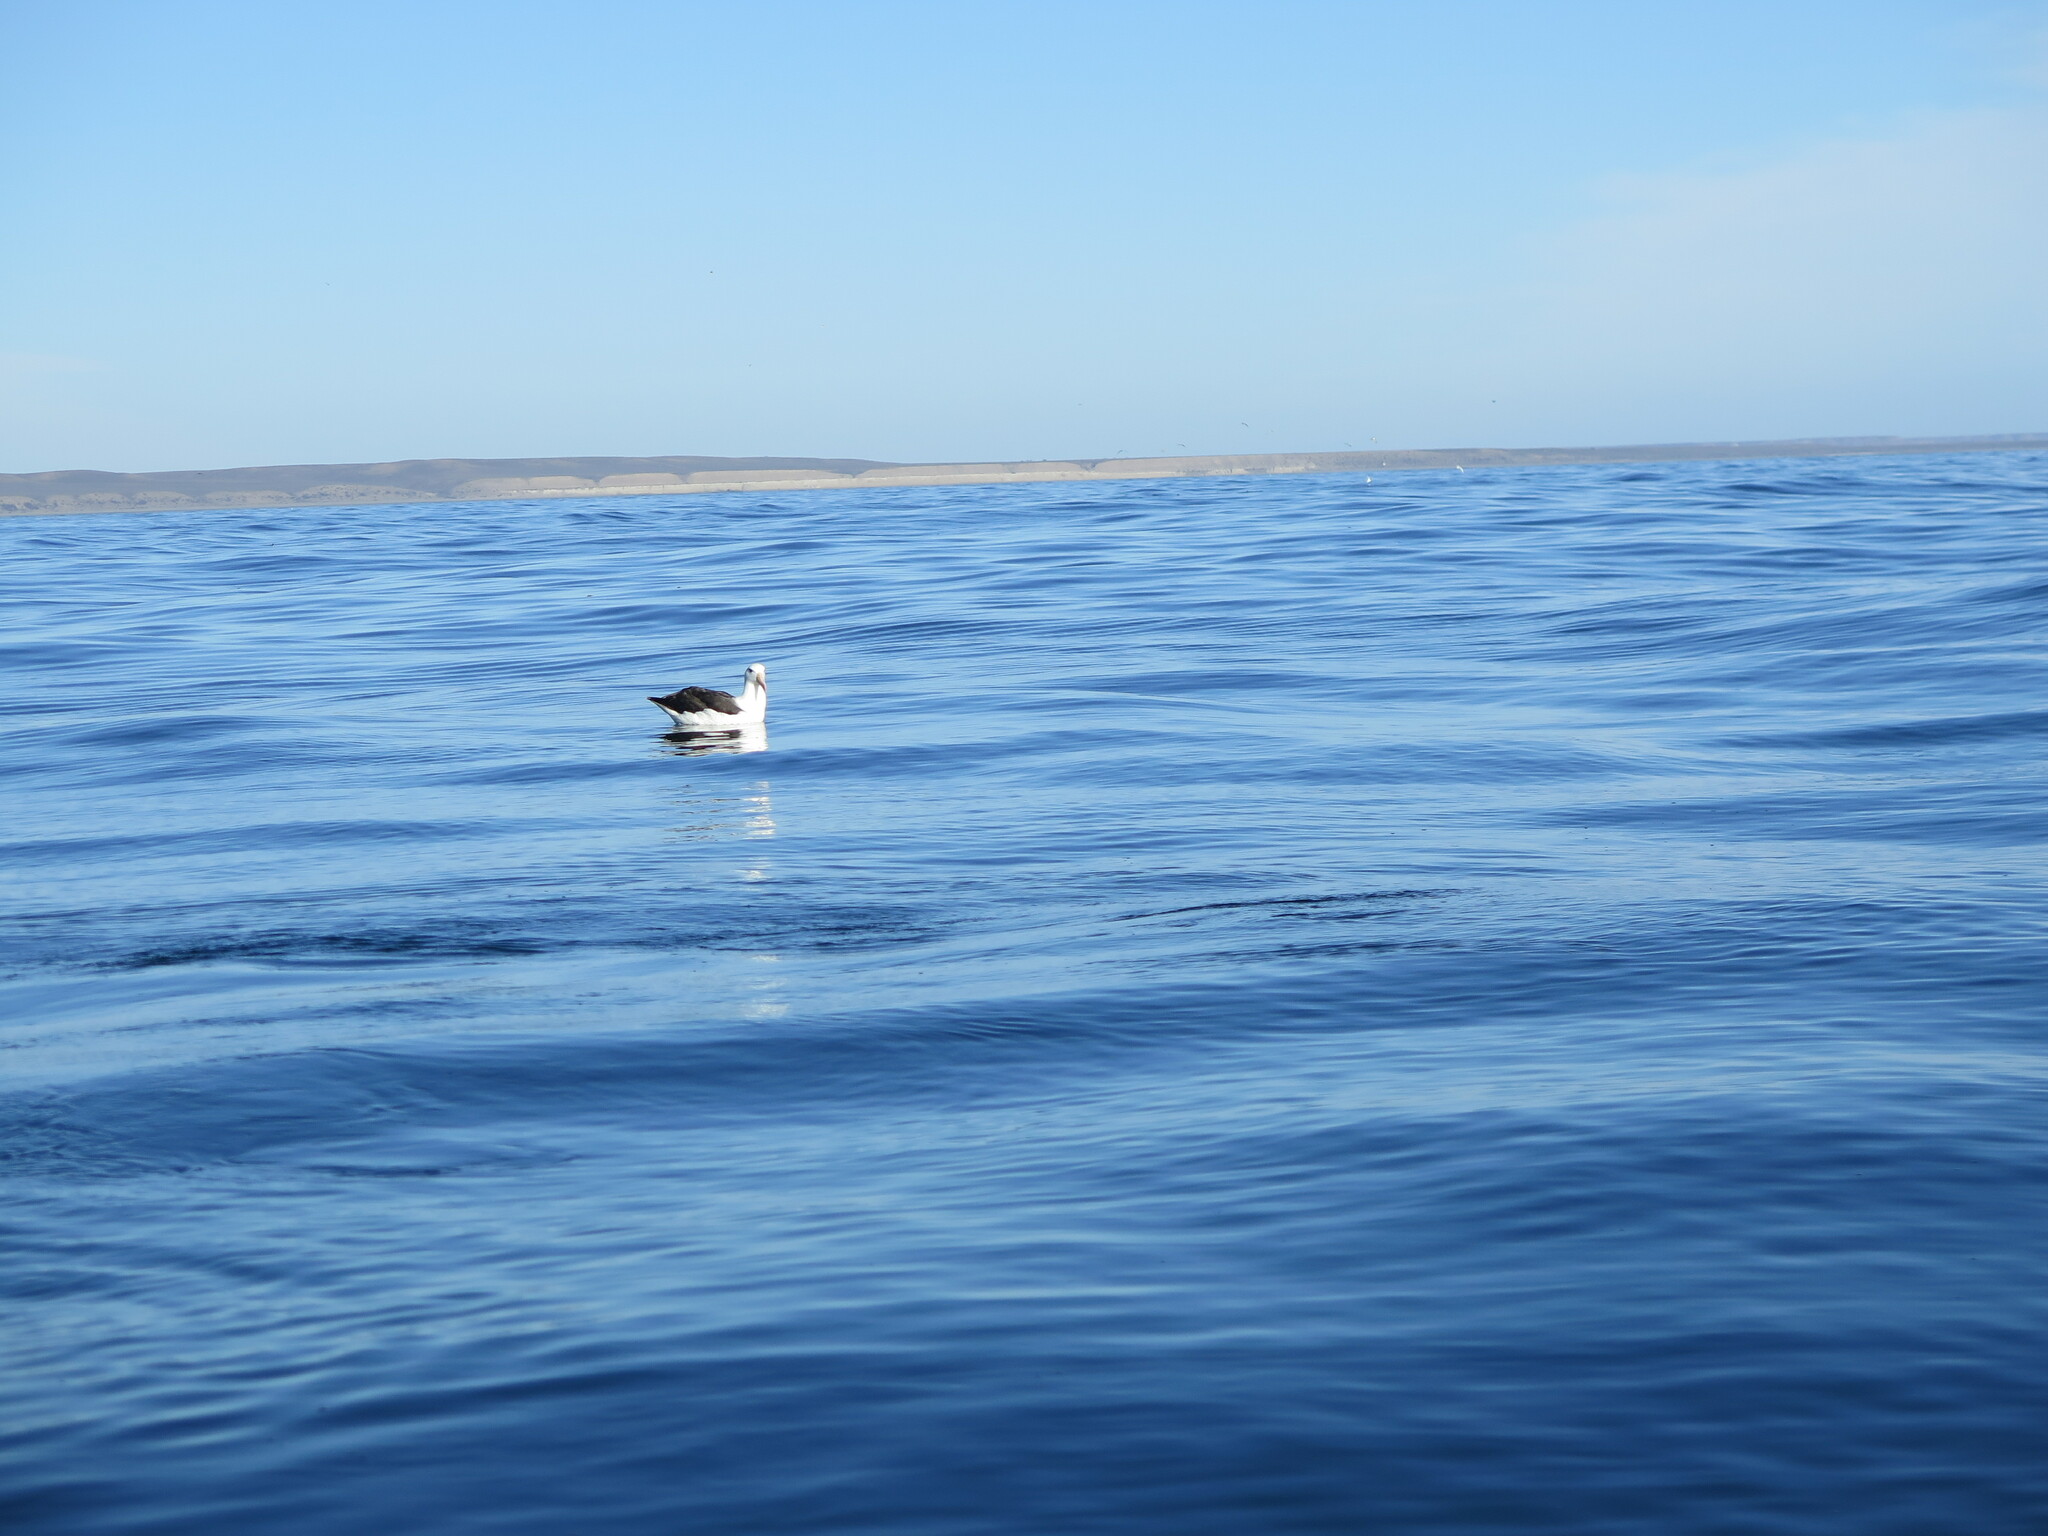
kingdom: Animalia
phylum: Chordata
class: Aves
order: Procellariiformes
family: Diomedeidae
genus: Thalassarche
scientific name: Thalassarche melanophris
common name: Black-browed albatross
